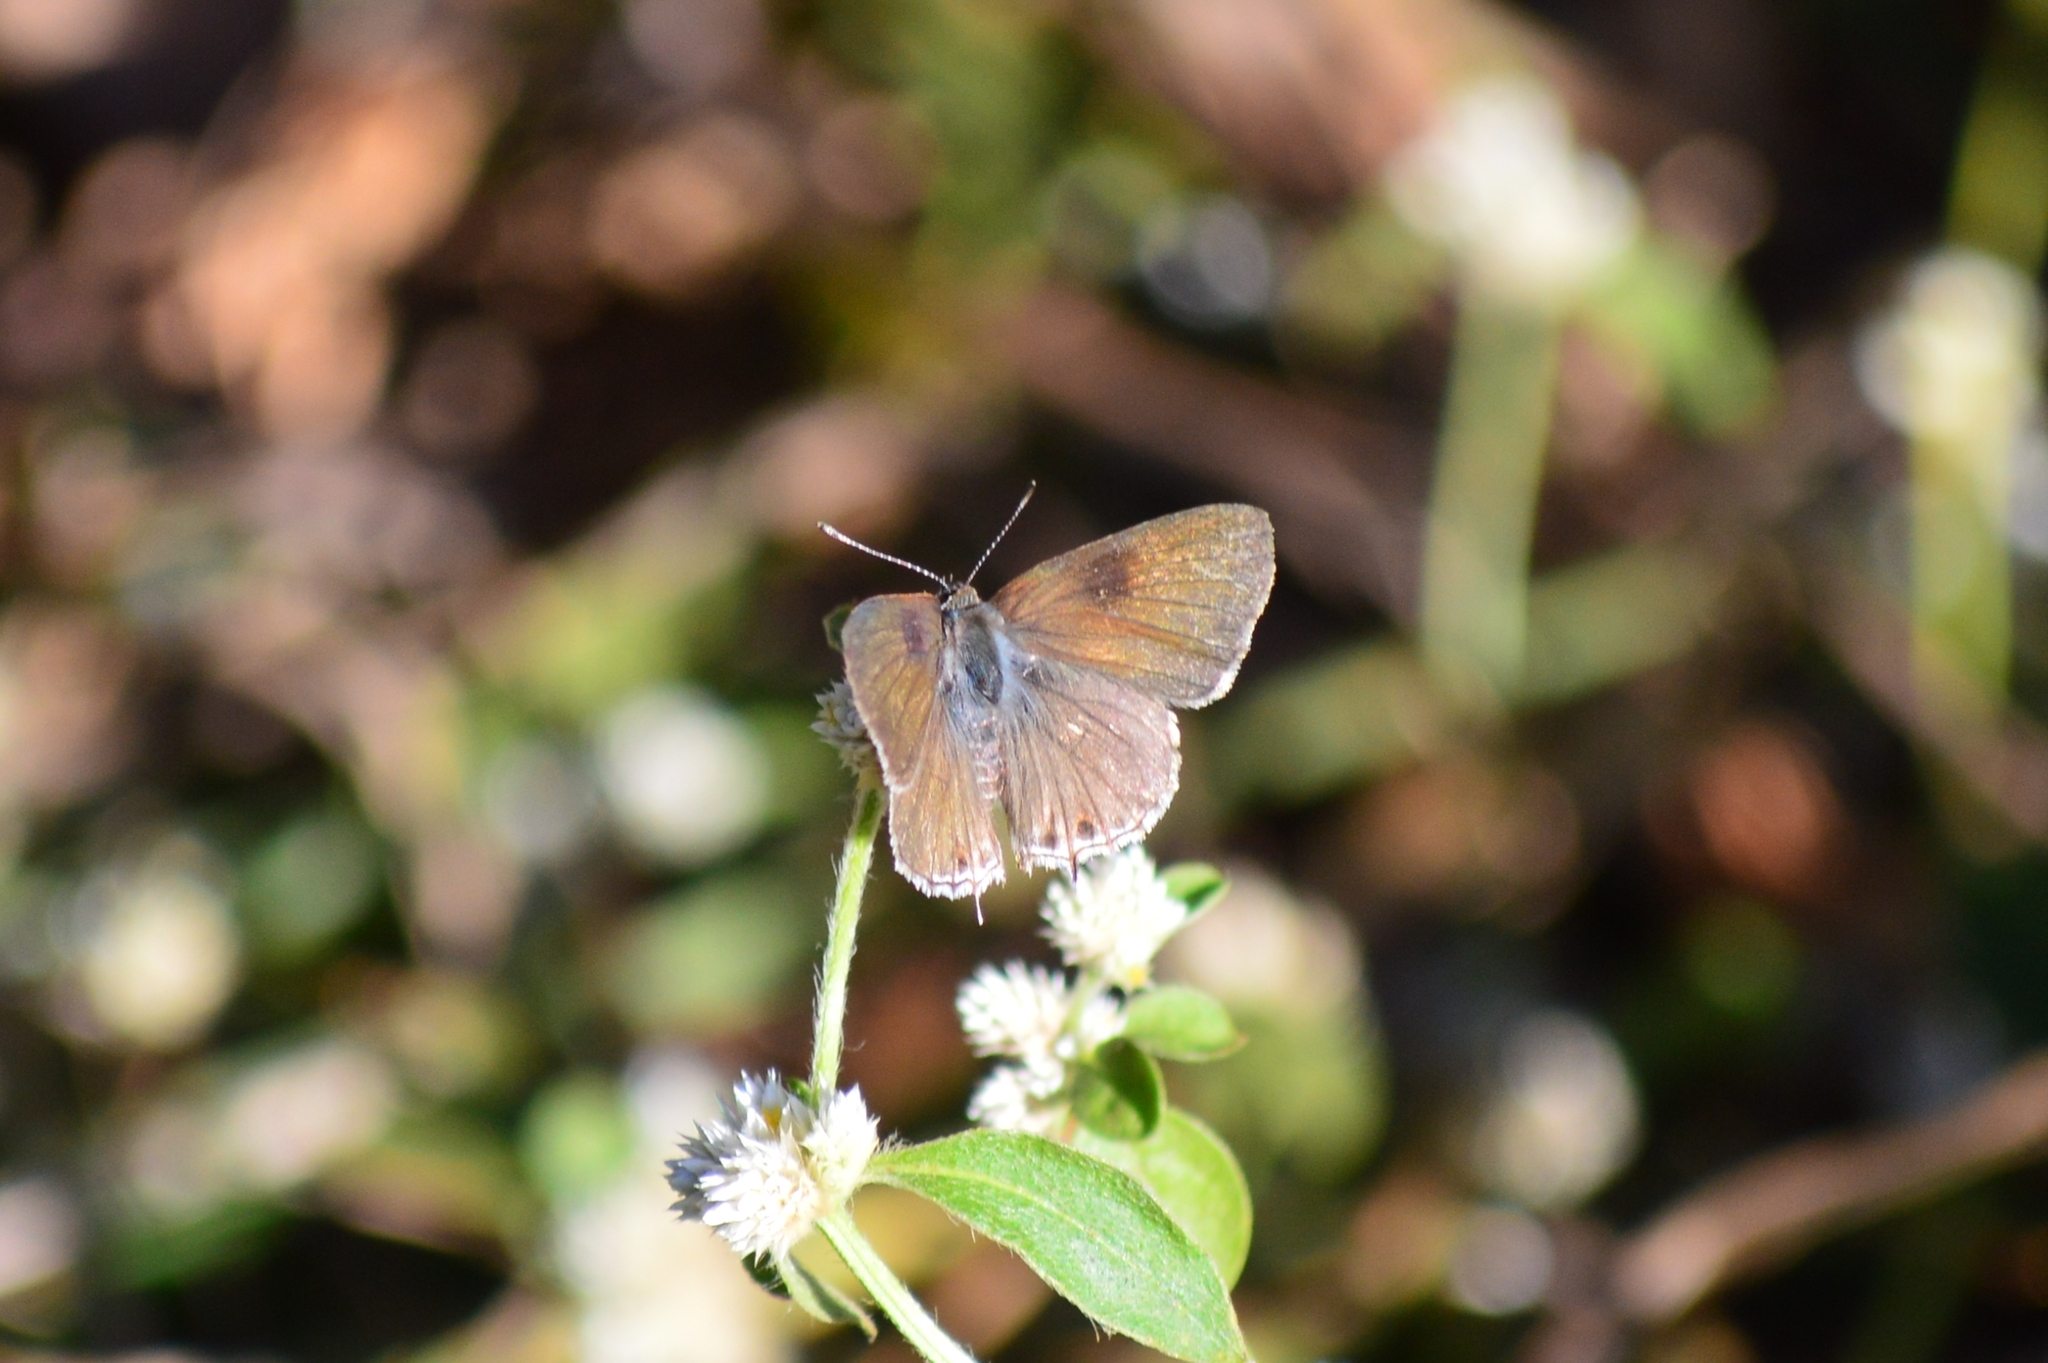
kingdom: Animalia
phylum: Arthropoda
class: Insecta
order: Lepidoptera
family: Lycaenidae
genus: Strymon
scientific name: Strymon astiocha
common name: Gray-spotted scrub-hairstreak
